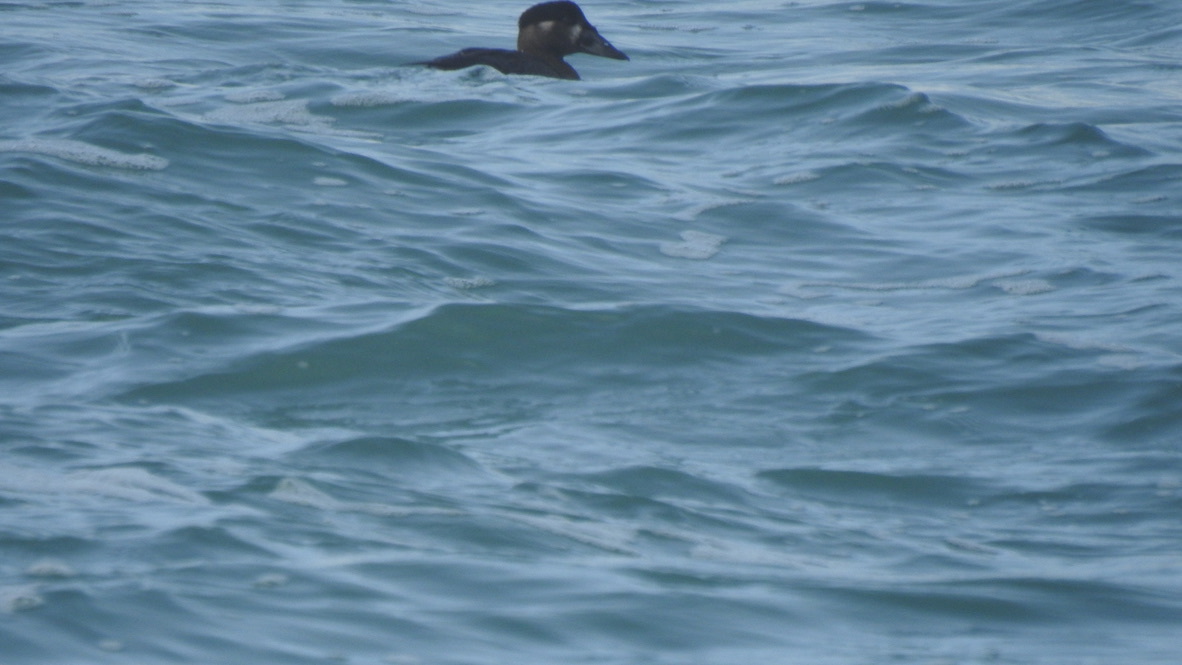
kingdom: Animalia
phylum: Chordata
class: Aves
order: Anseriformes
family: Anatidae
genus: Melanitta
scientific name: Melanitta perspicillata
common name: Surf scoter
